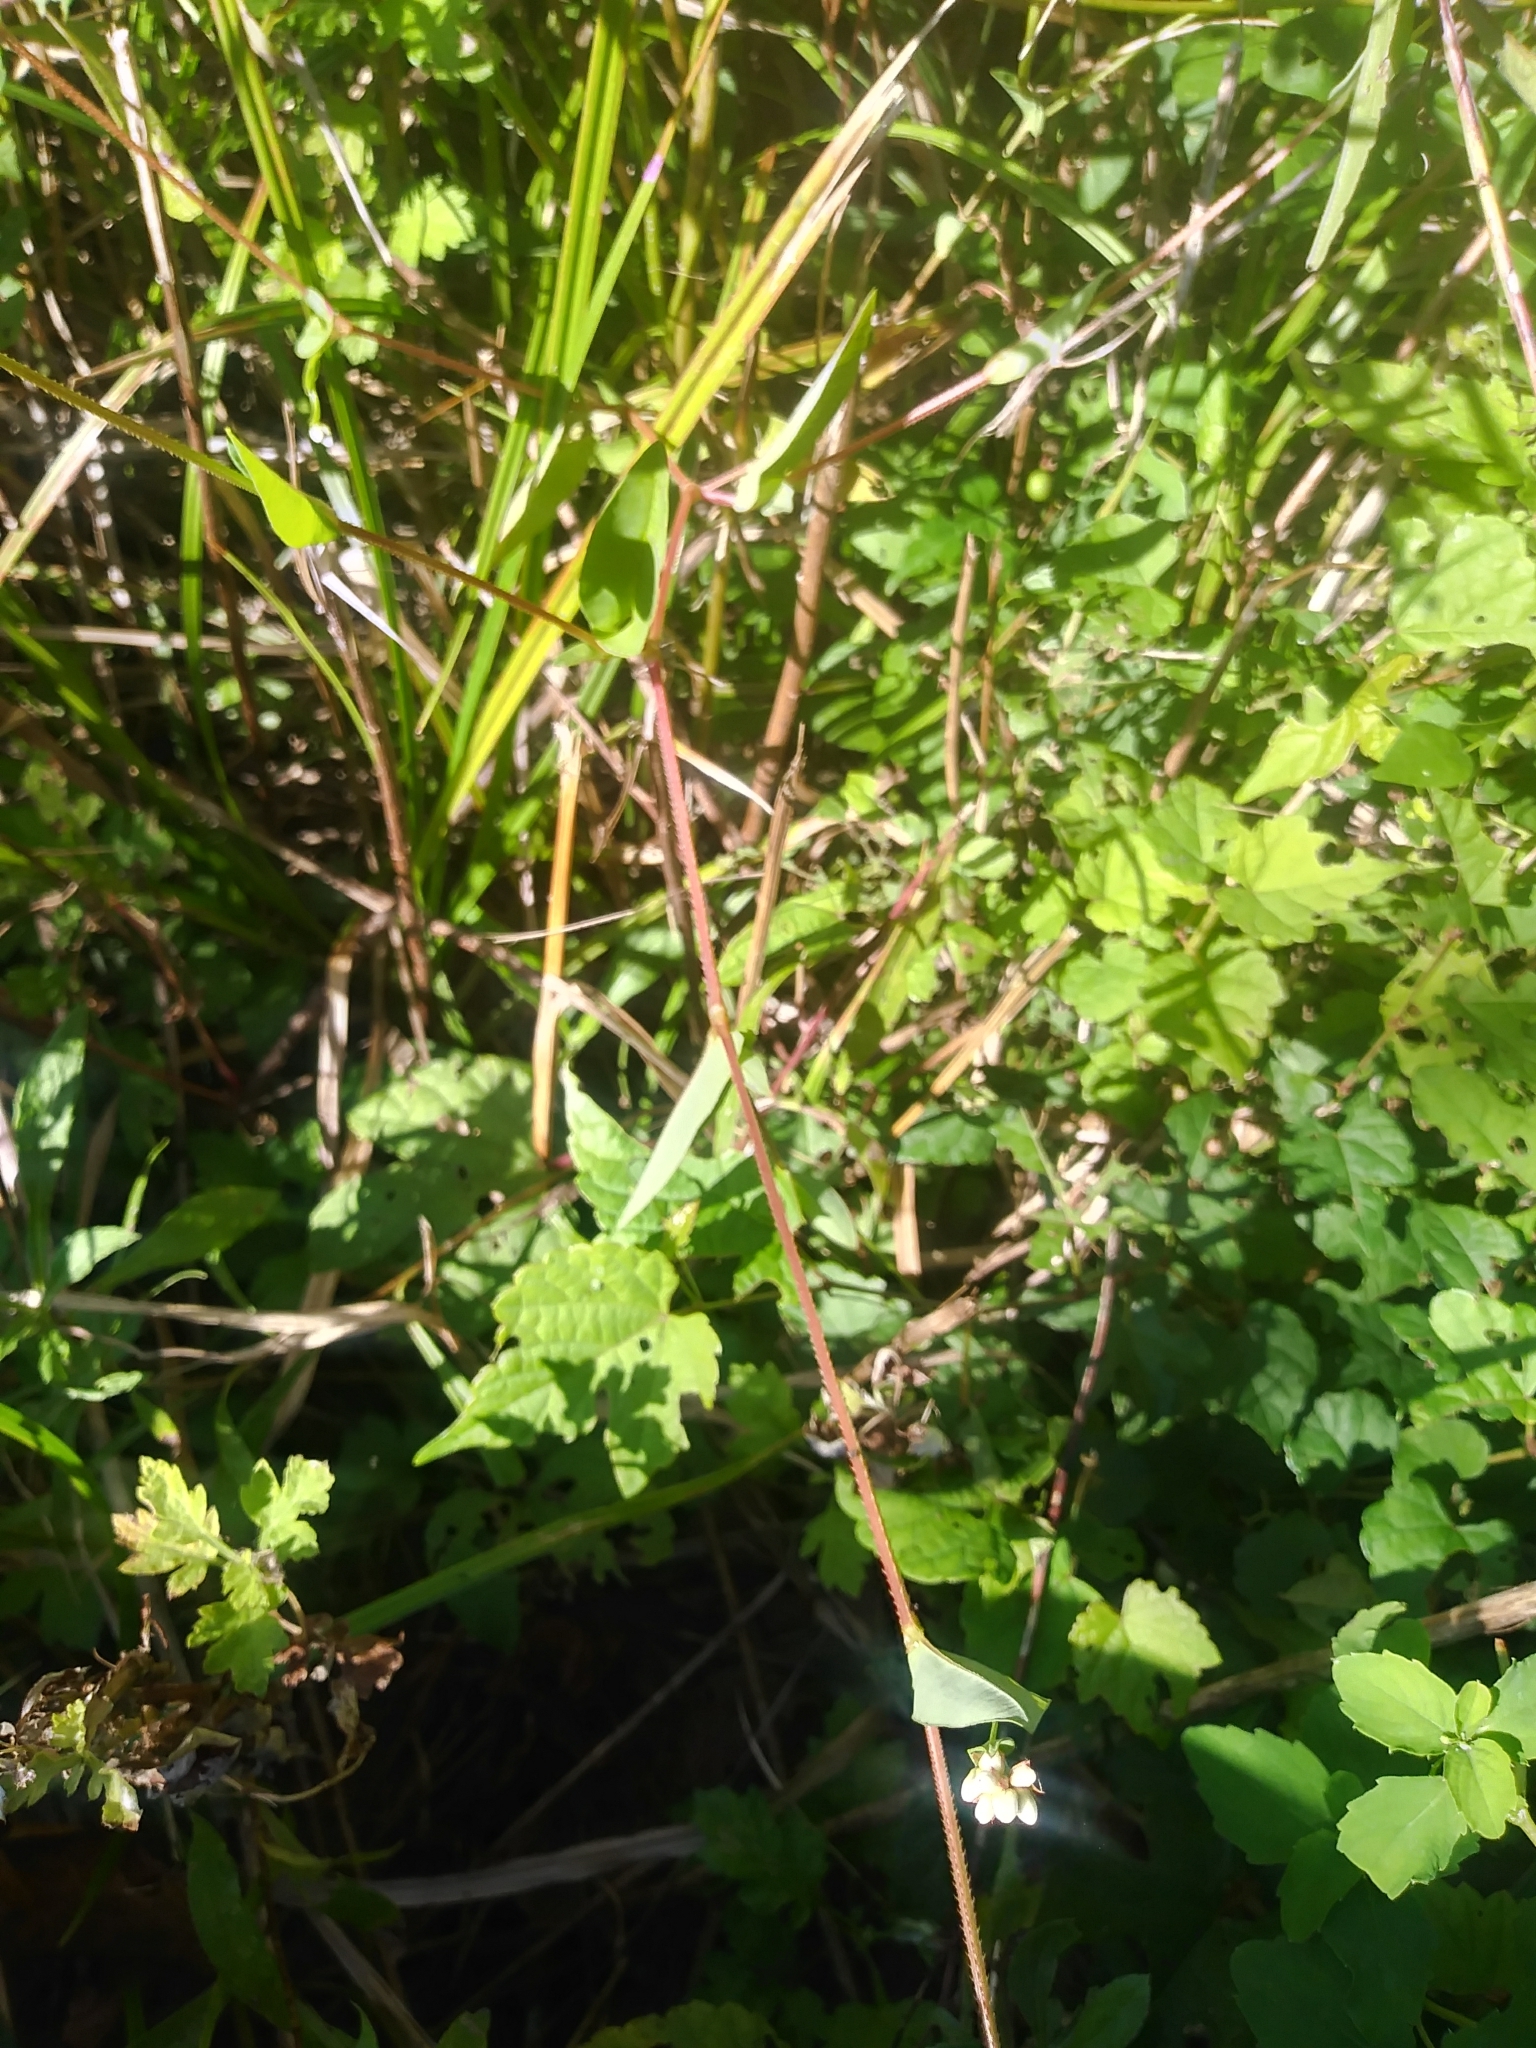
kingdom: Plantae
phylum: Tracheophyta
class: Magnoliopsida
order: Caryophyllales
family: Polygonaceae
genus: Persicaria
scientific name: Persicaria sagittata
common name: American tearthumb
